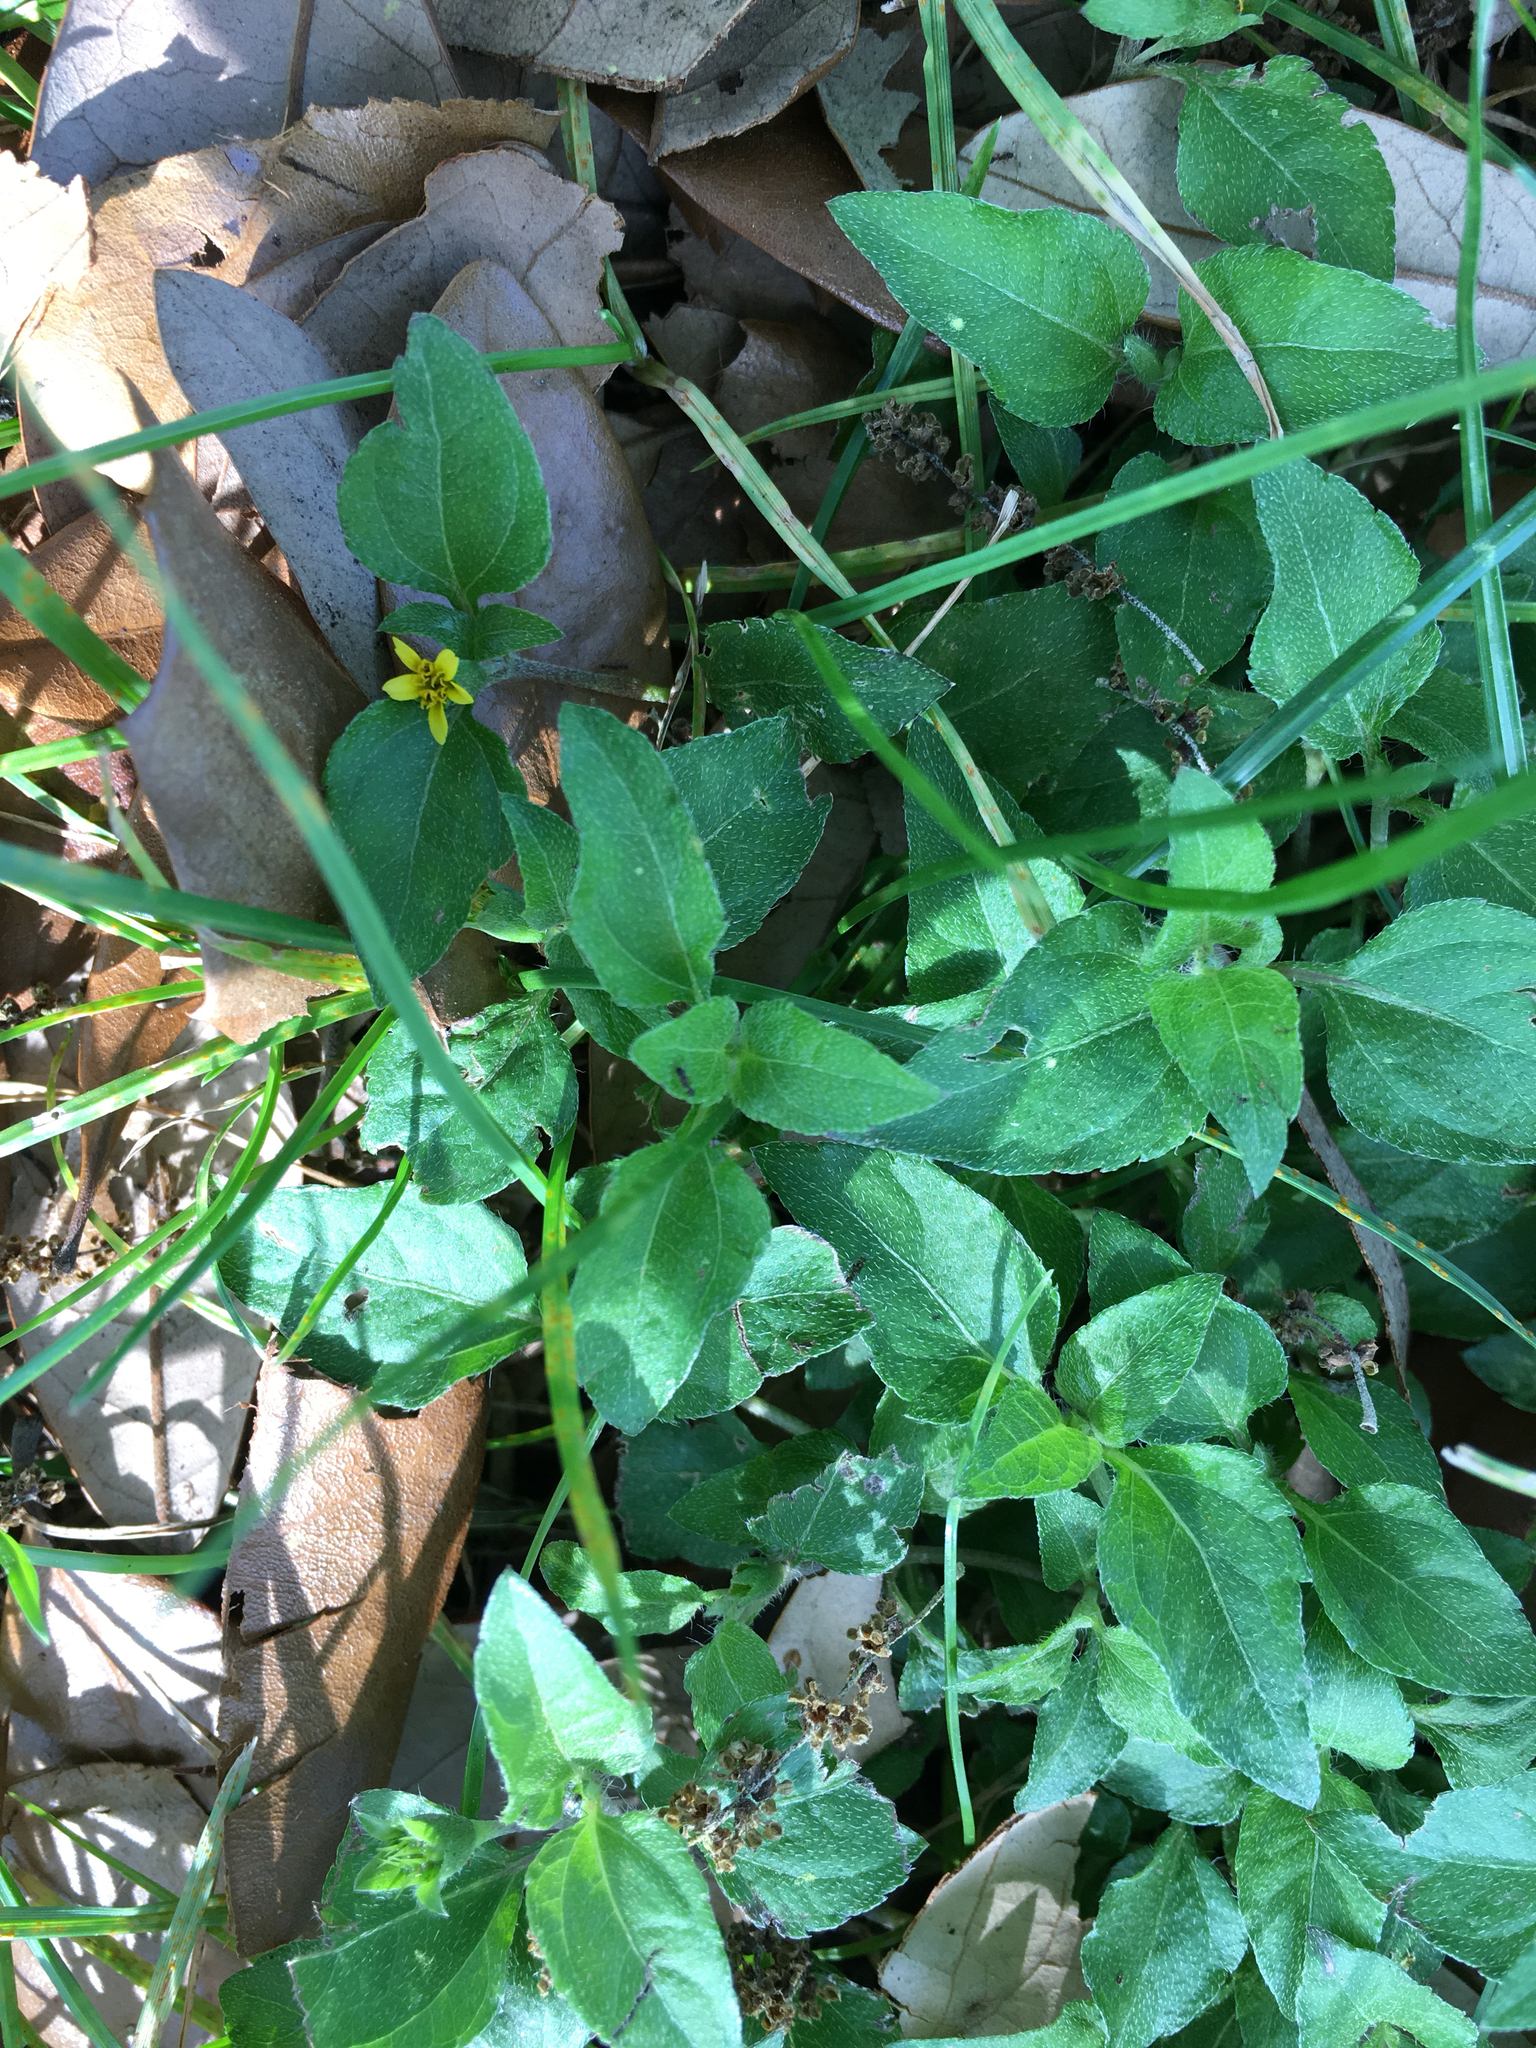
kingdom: Plantae
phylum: Tracheophyta
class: Magnoliopsida
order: Asterales
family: Asteraceae
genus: Calyptocarpus
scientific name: Calyptocarpus vialis
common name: Straggler daisy
